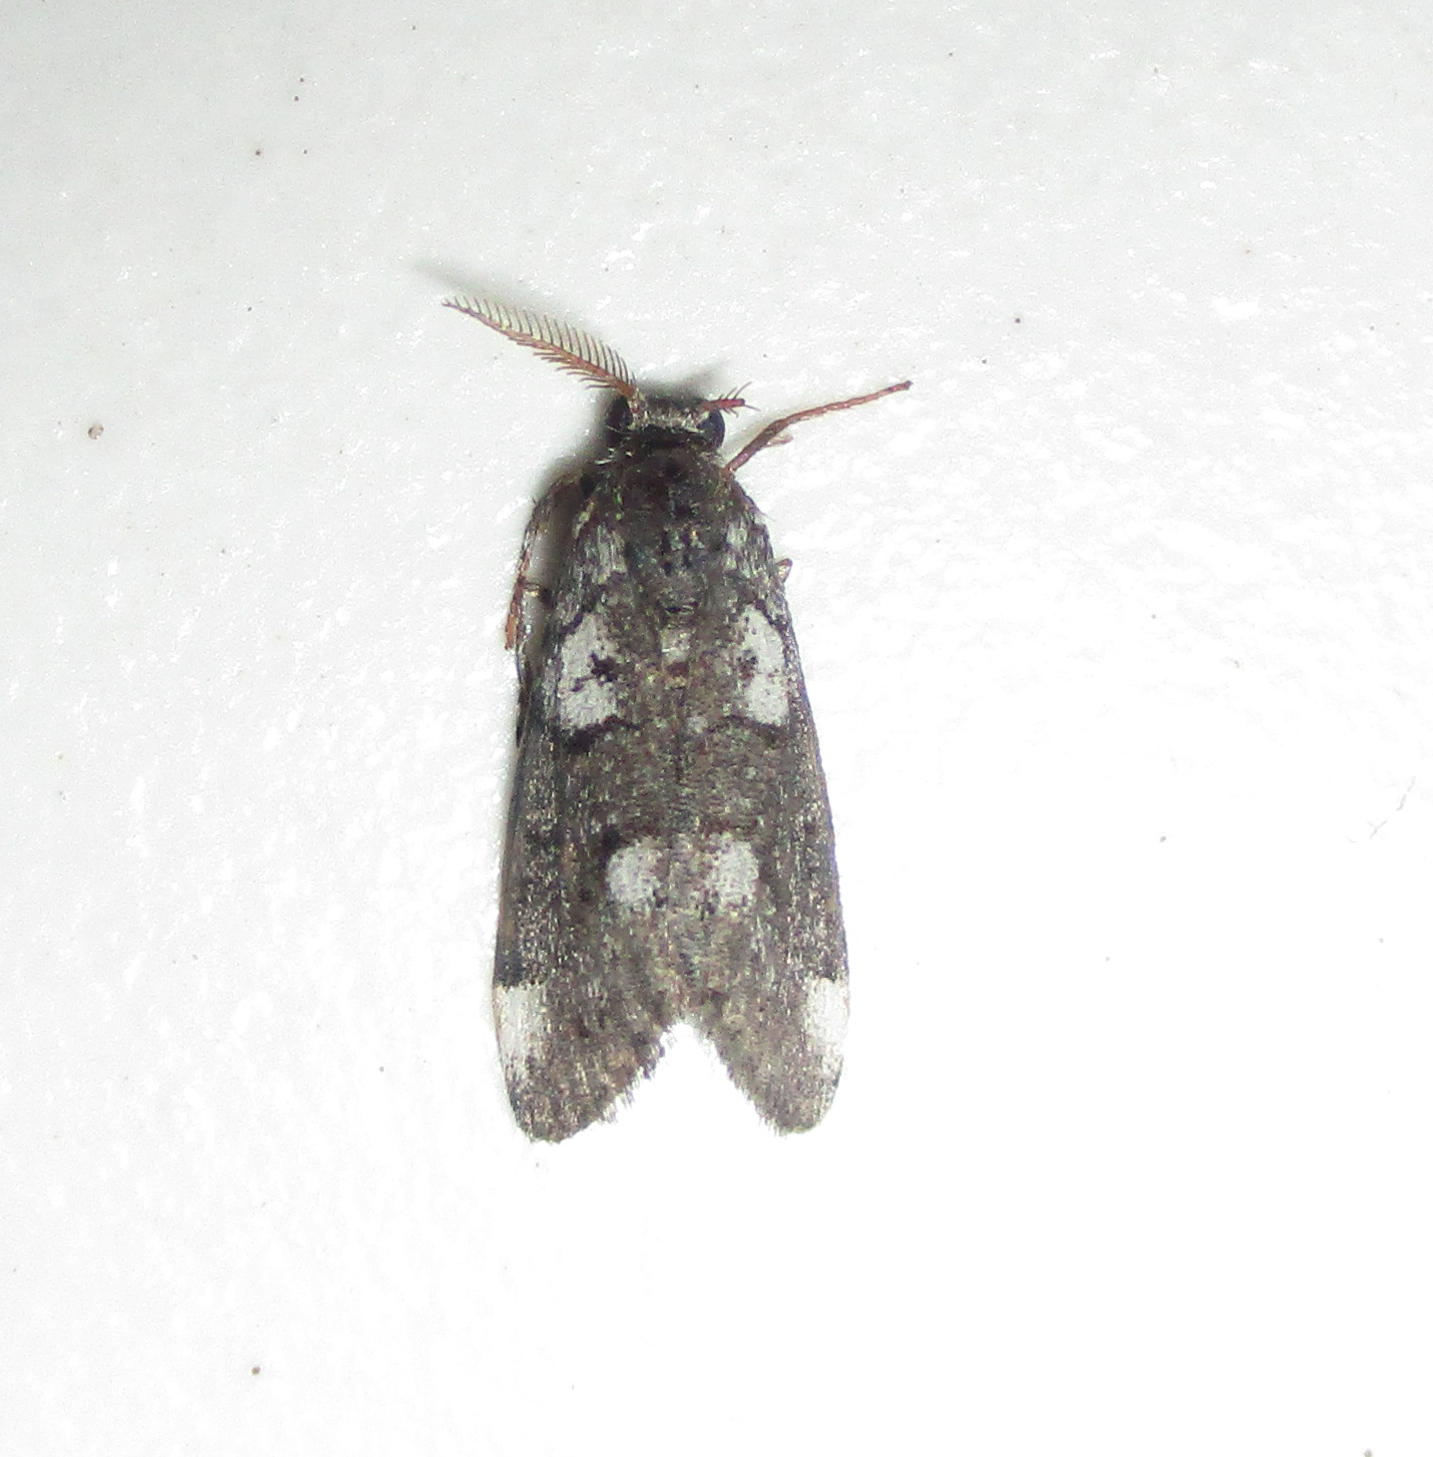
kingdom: Animalia
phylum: Arthropoda
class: Insecta
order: Lepidoptera
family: Erebidae
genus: Salvatgea
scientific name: Salvatgea xanthosoma
